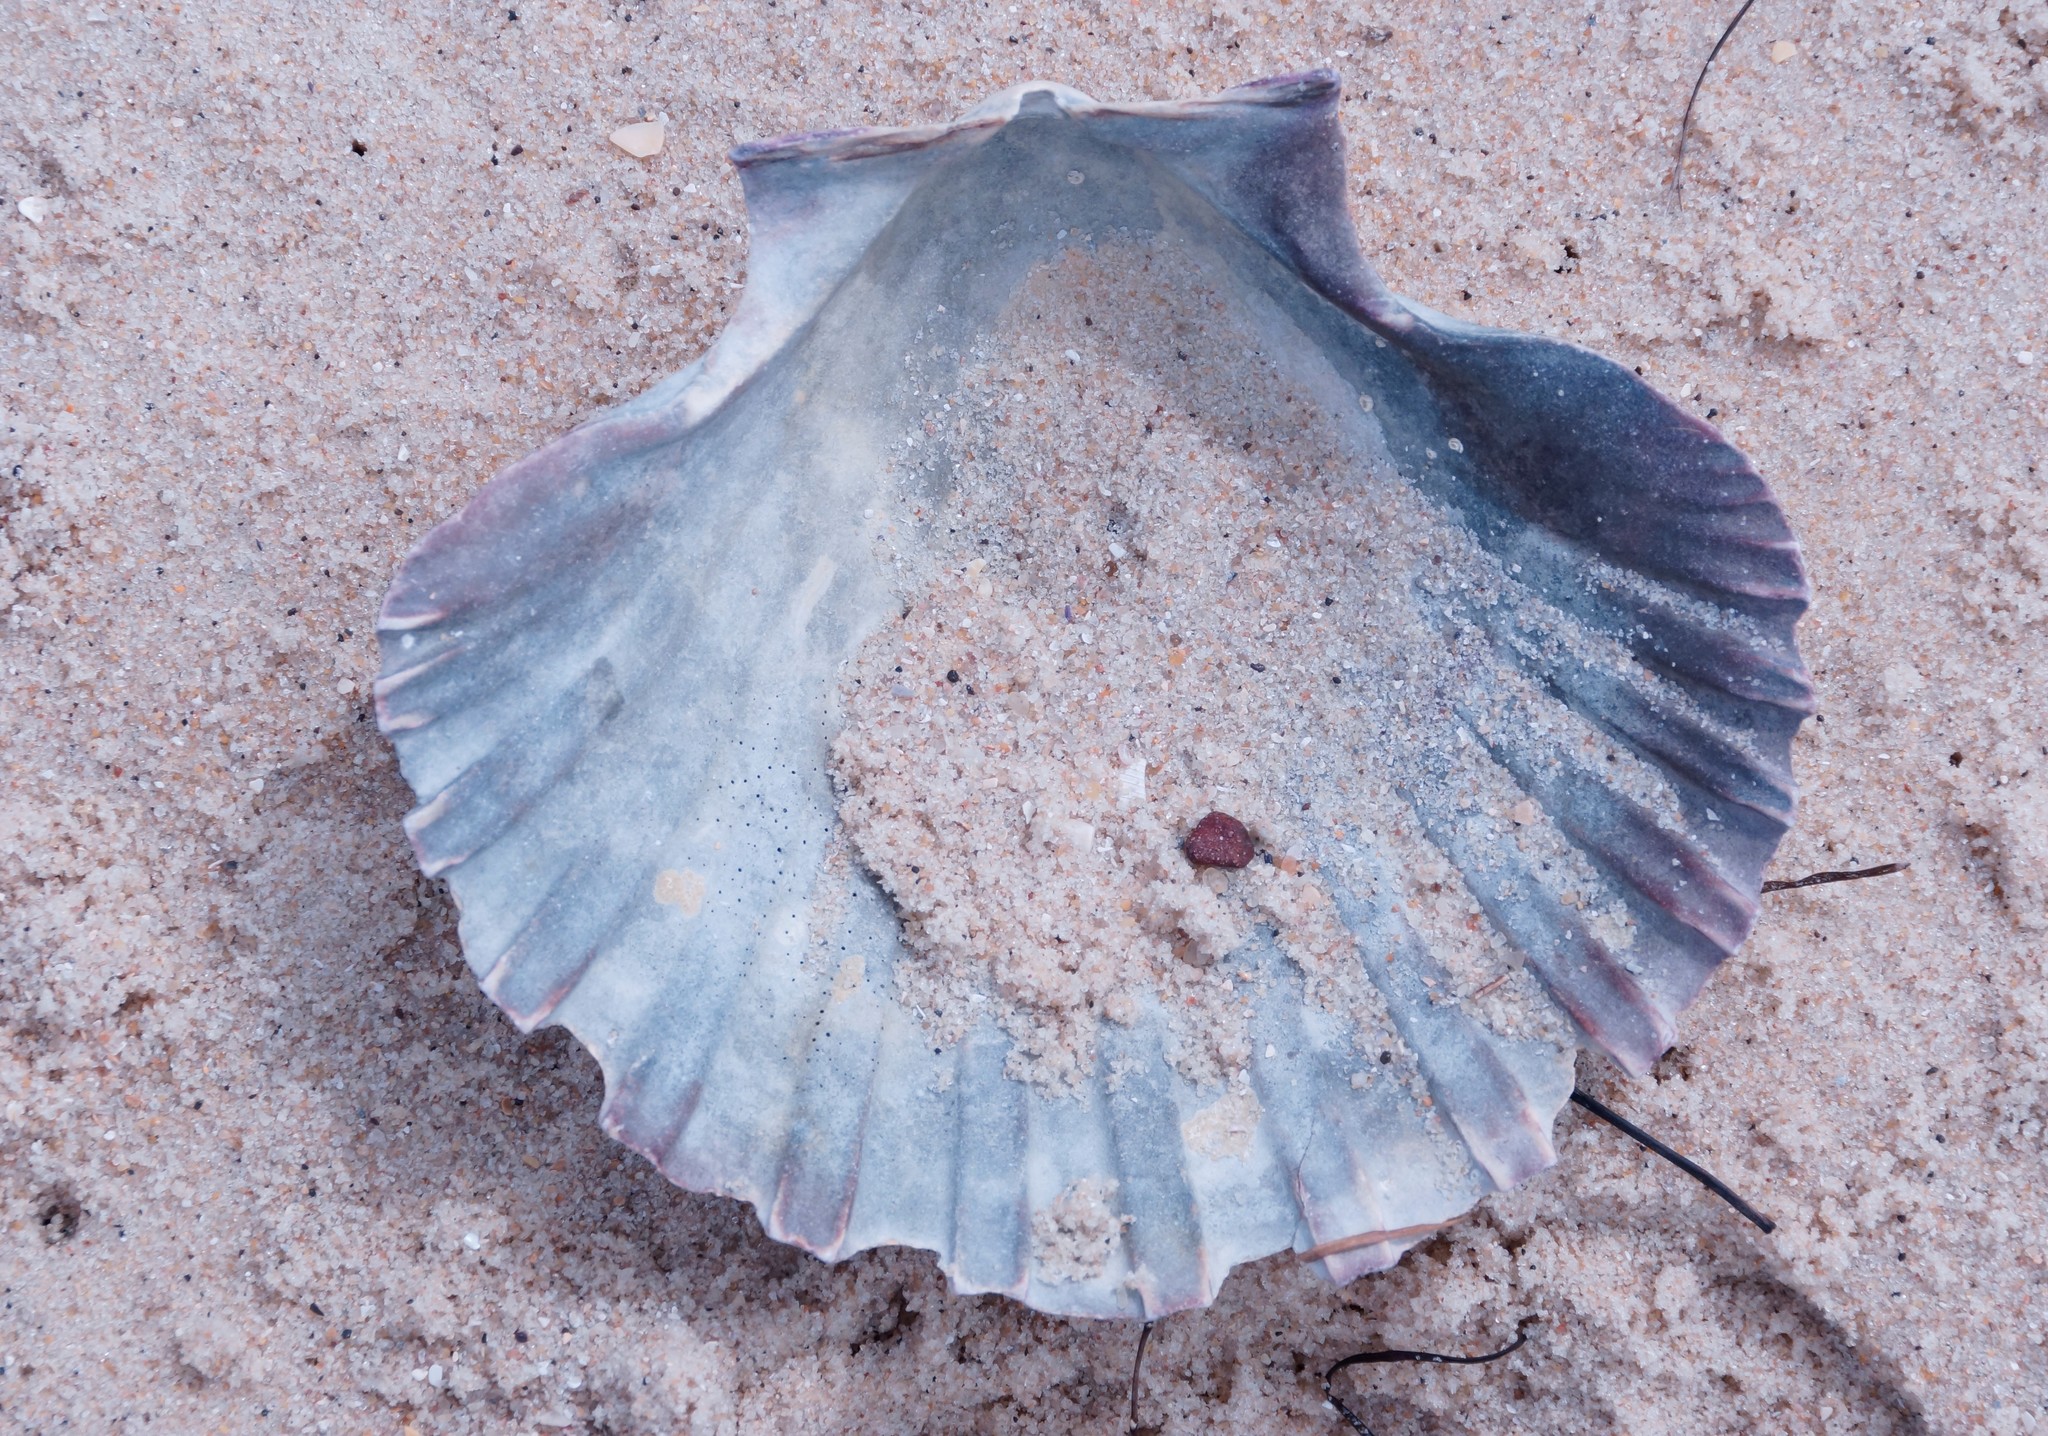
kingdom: Animalia
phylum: Mollusca
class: Bivalvia
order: Pectinida
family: Pectinidae
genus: Pecten
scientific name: Pecten fumatus
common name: Australian scallop
